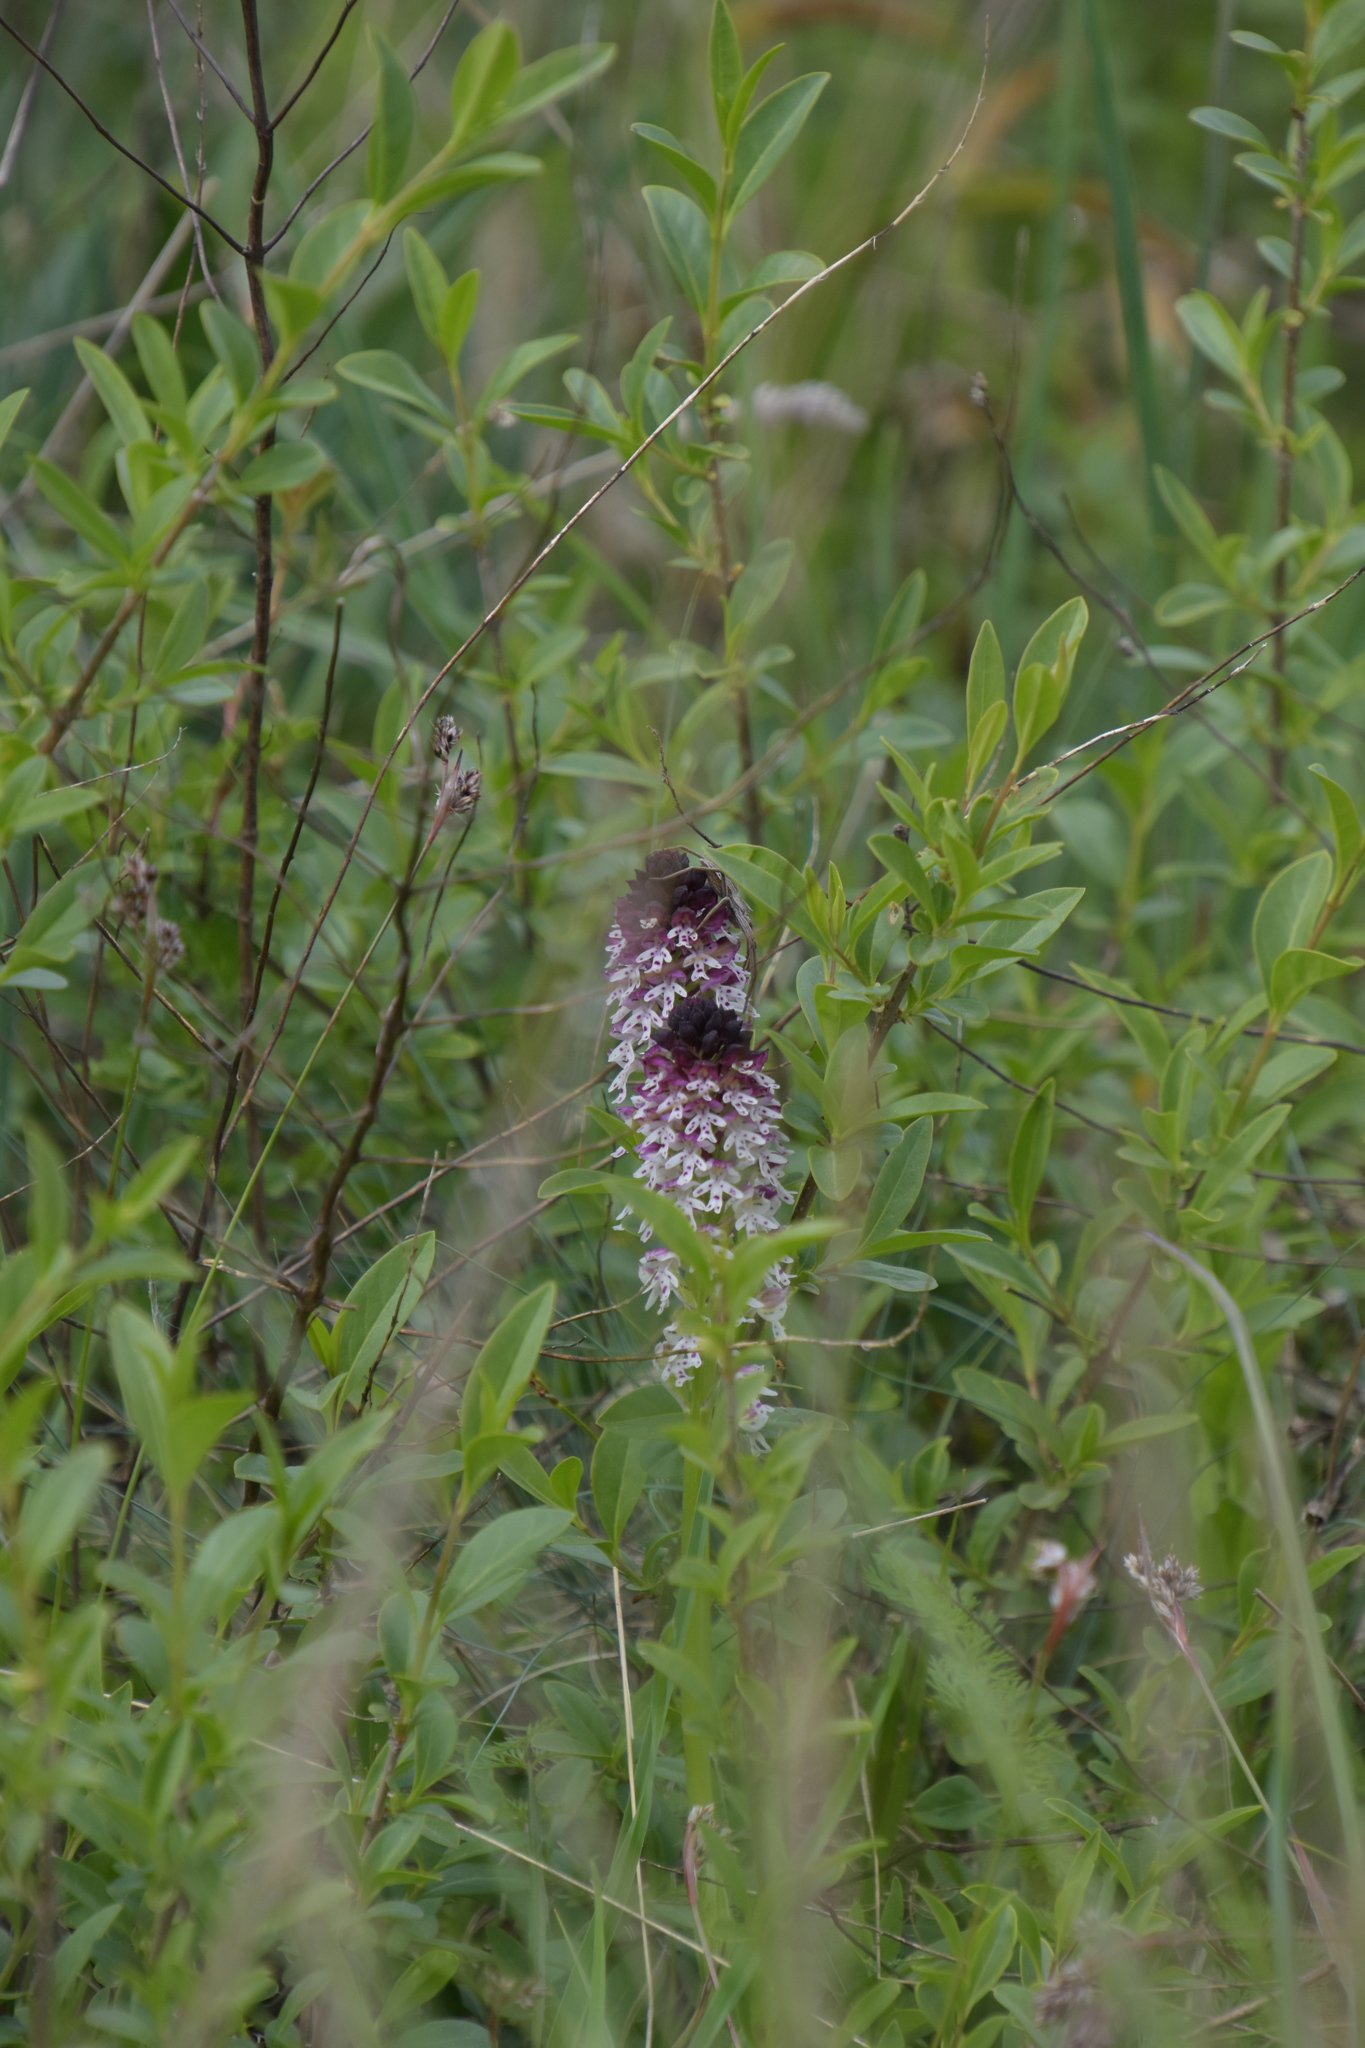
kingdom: Plantae
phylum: Tracheophyta
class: Liliopsida
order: Asparagales
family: Orchidaceae
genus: Neotinea
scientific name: Neotinea ustulata
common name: Burnt orchid
